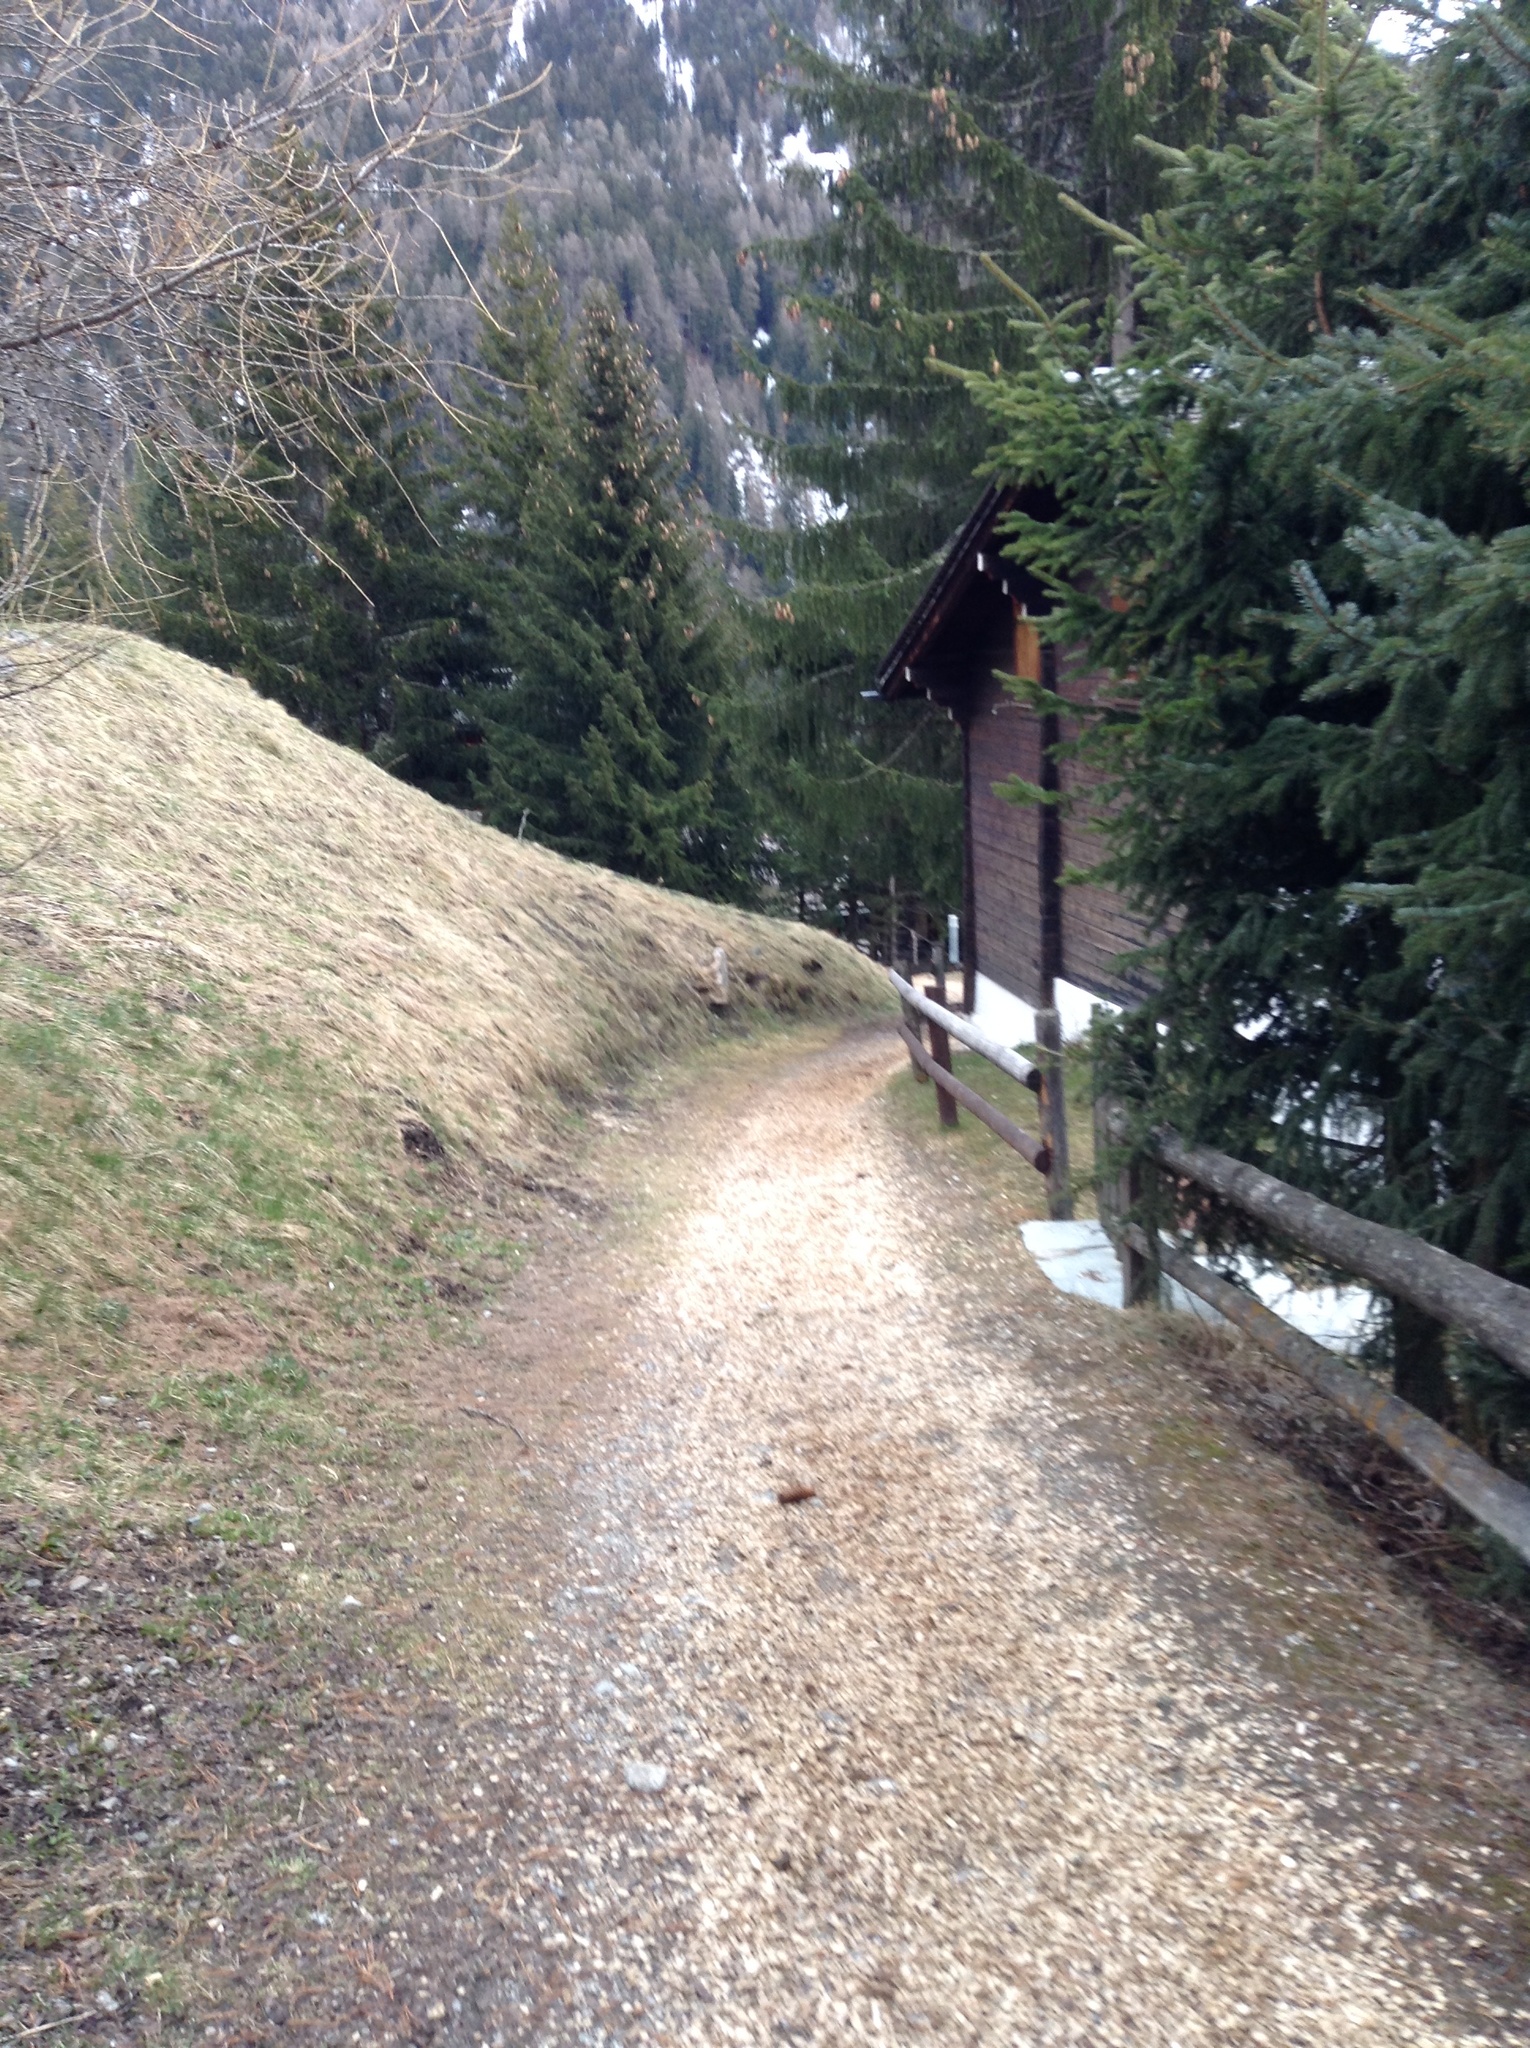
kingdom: Plantae
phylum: Tracheophyta
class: Pinopsida
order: Pinales
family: Pinaceae
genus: Picea
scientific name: Picea abies
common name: Norway spruce
